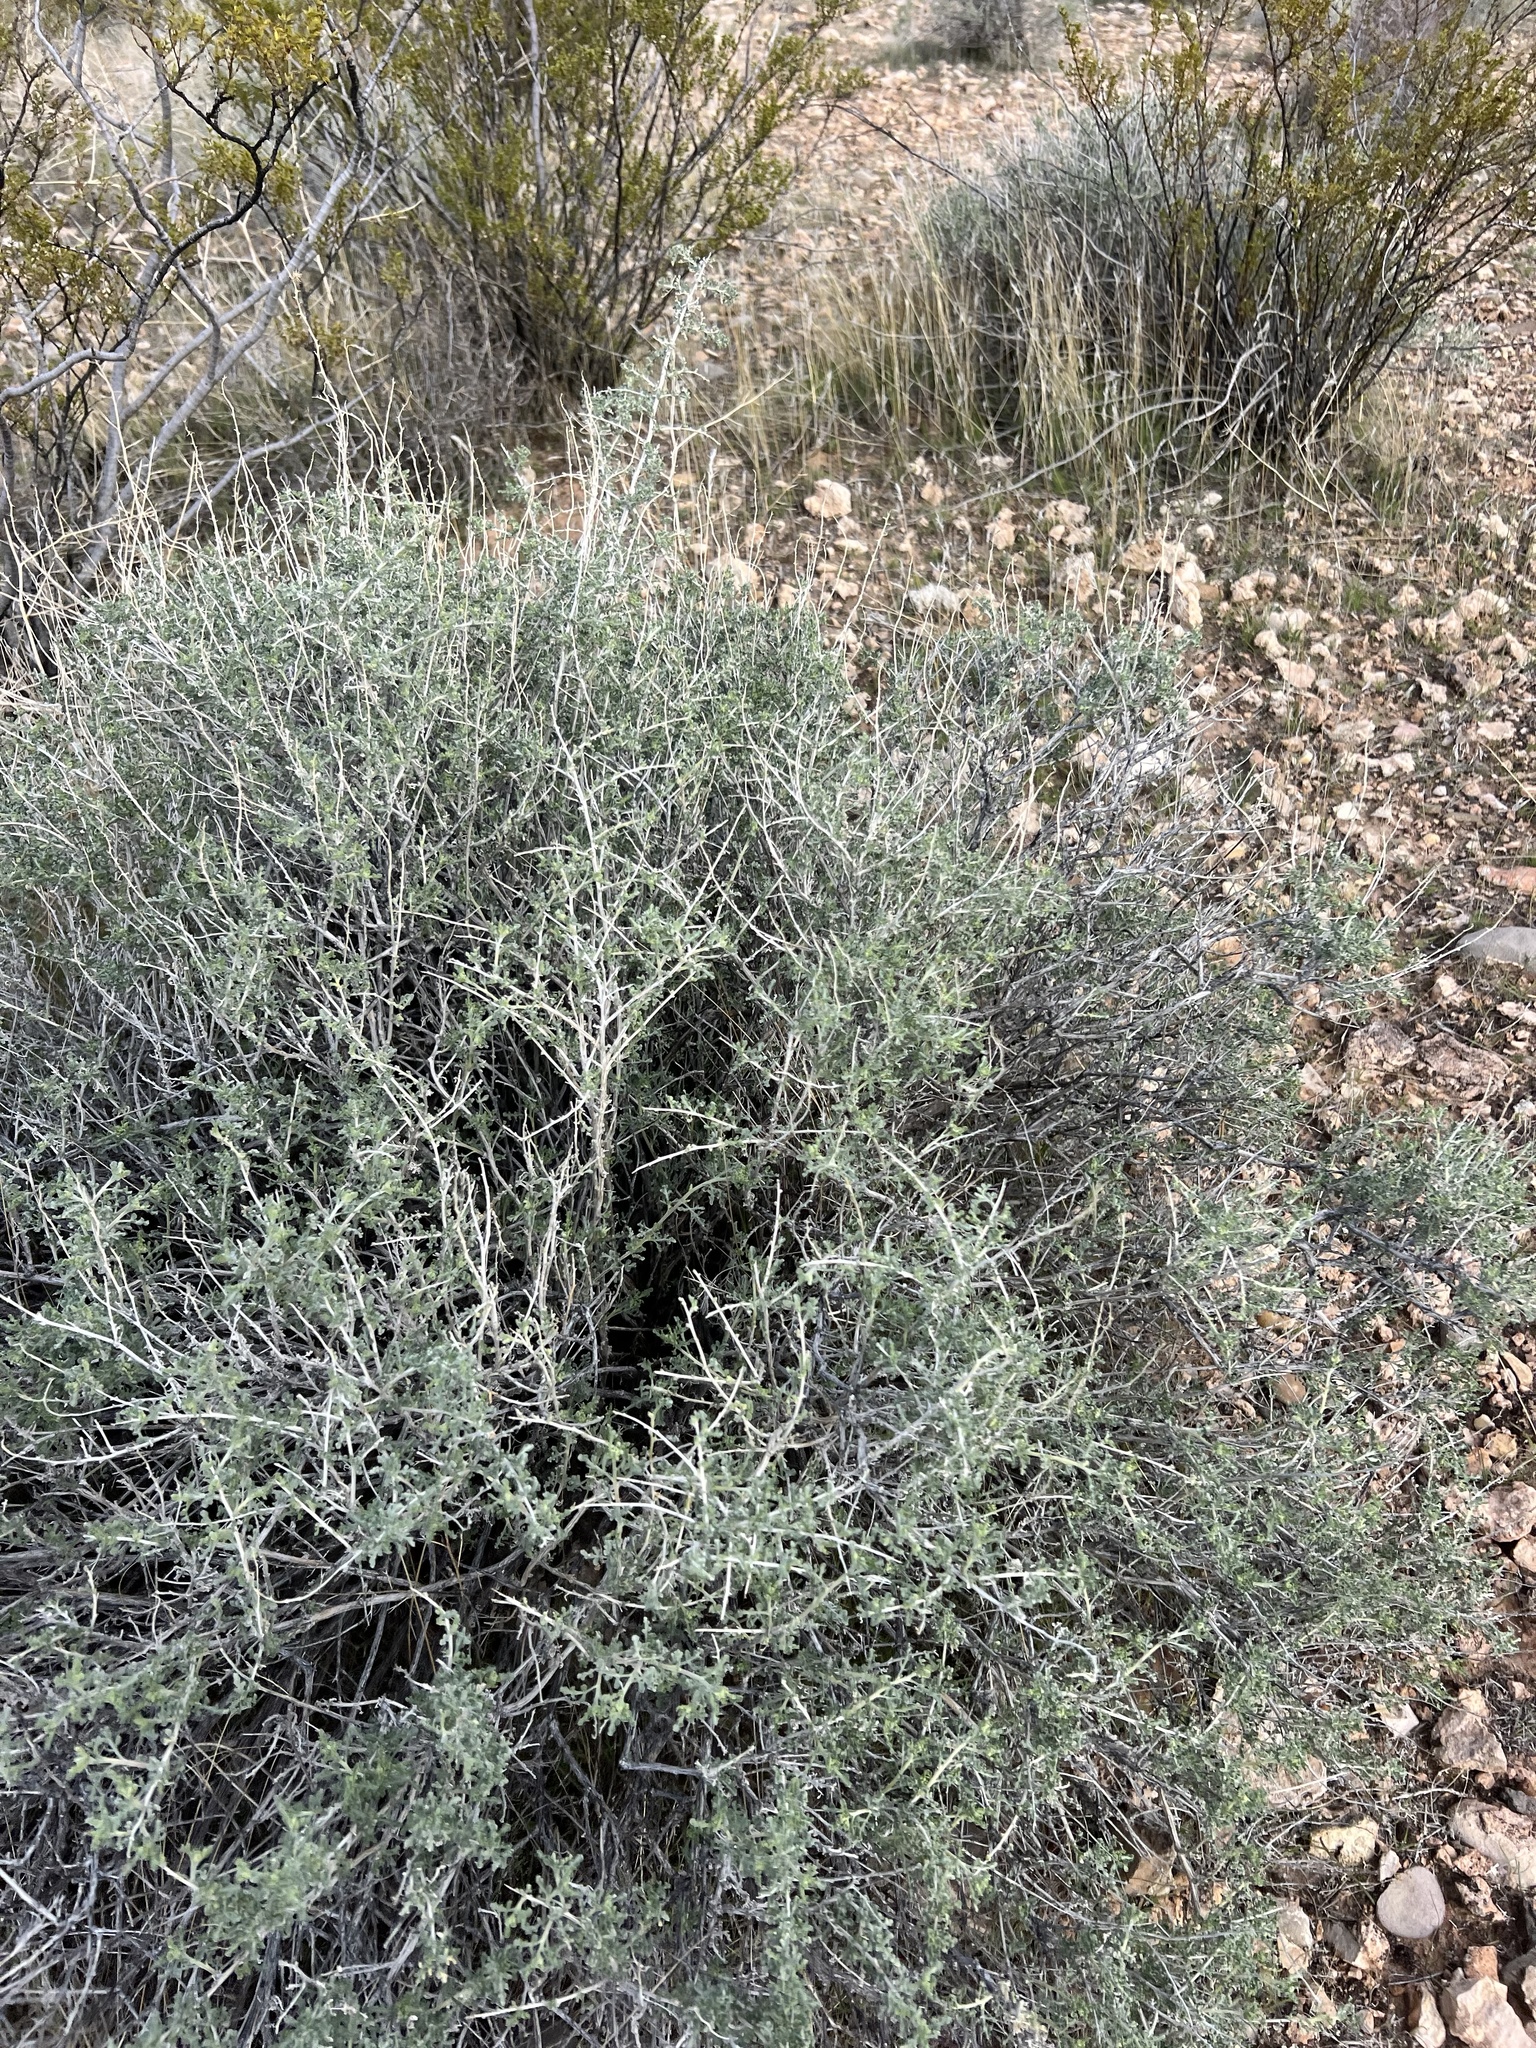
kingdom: Plantae
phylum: Tracheophyta
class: Magnoliopsida
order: Asterales
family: Asteraceae
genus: Ambrosia
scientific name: Ambrosia dumosa
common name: Bur-sage
